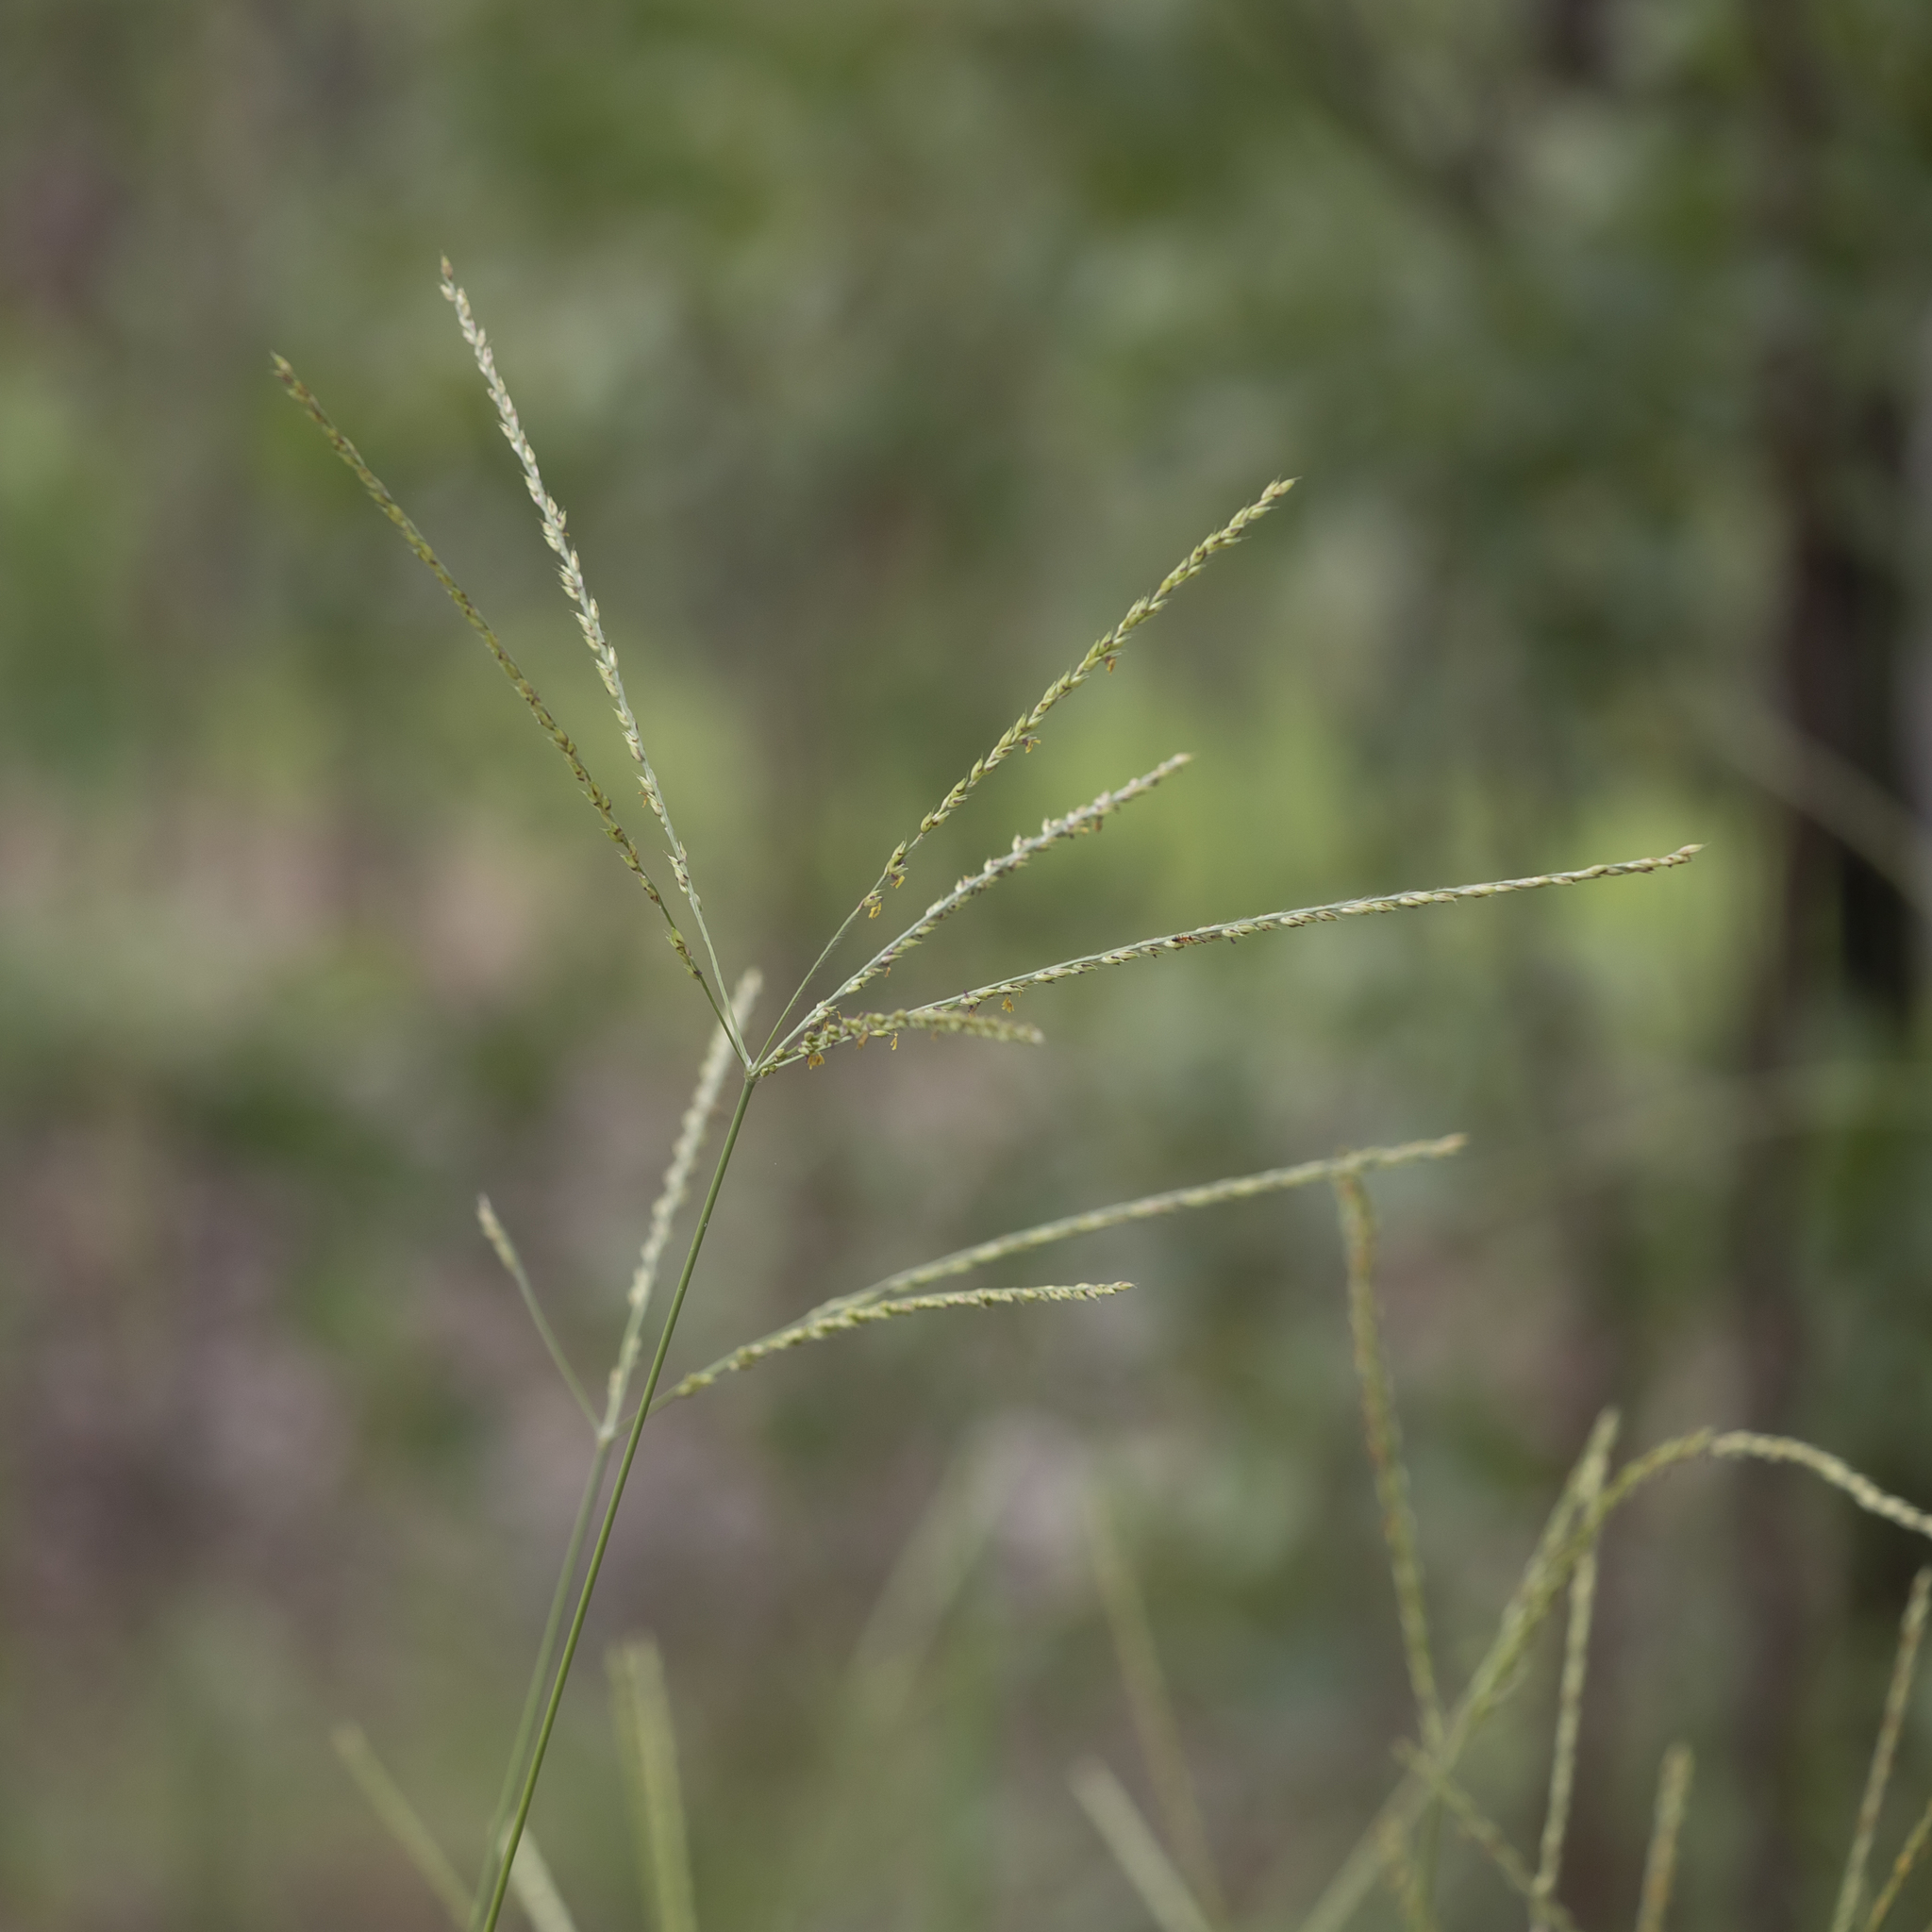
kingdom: Plantae
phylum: Tracheophyta
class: Liliopsida
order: Poales
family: Poaceae
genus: Alloteropsis
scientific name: Alloteropsis semialata
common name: Cockatoo grass
